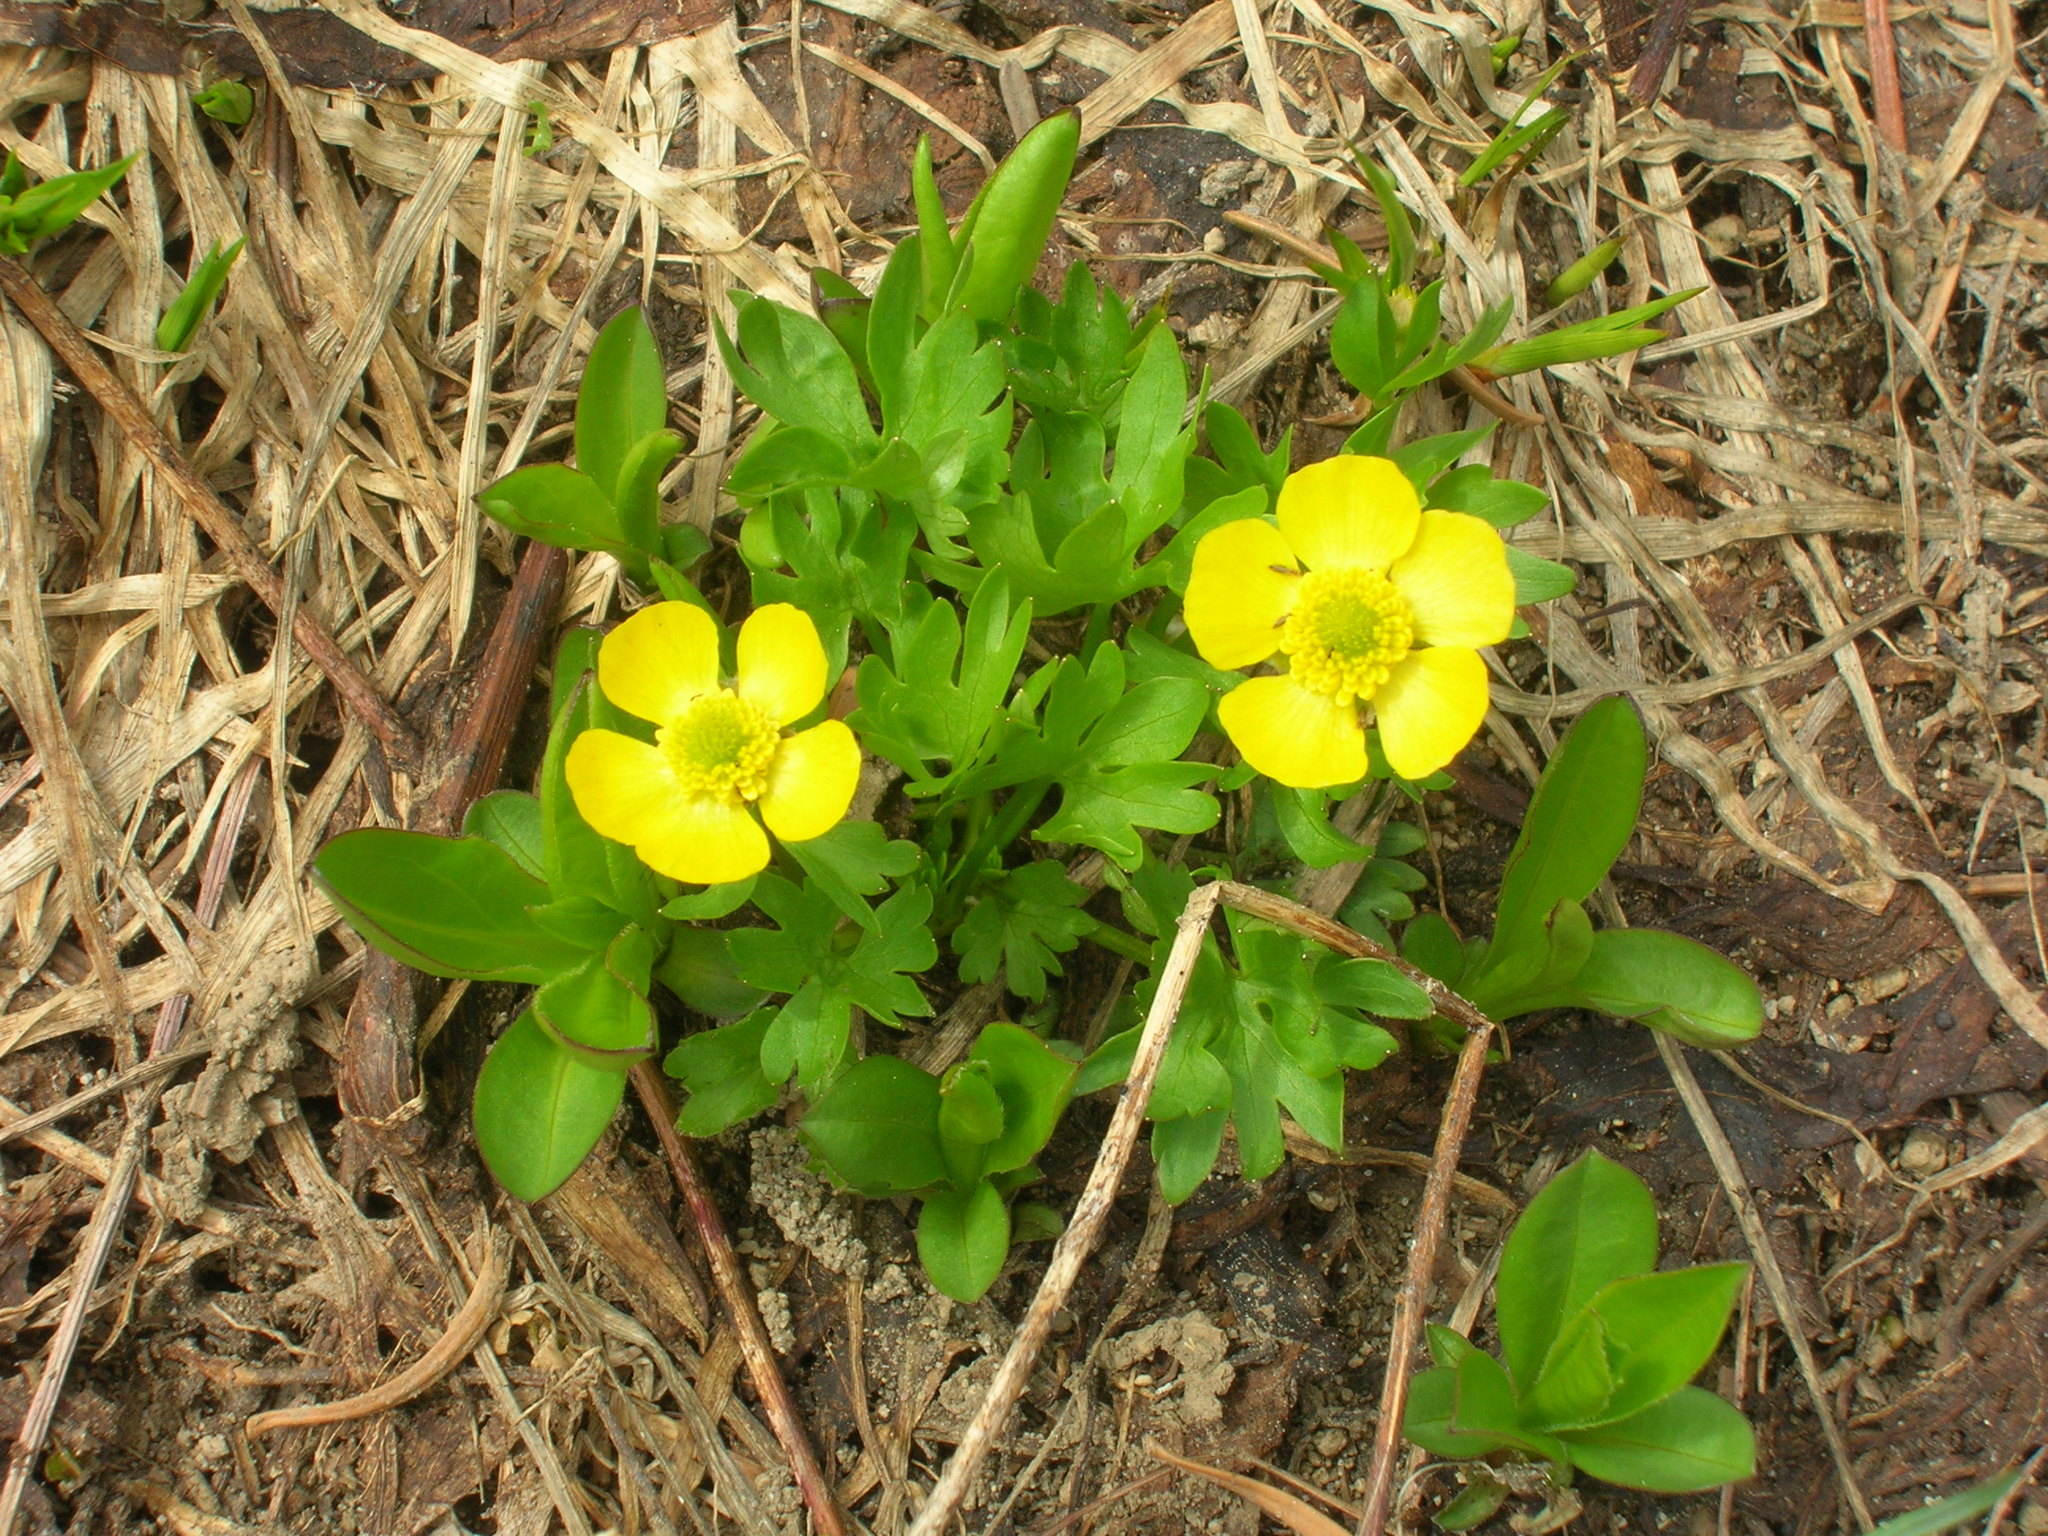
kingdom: Plantae
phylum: Tracheophyta
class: Magnoliopsida
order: Ranunculales
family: Ranunculaceae
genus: Ranunculus
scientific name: Ranunculus eschscholtzii
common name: Eschscholtz's buttercup
